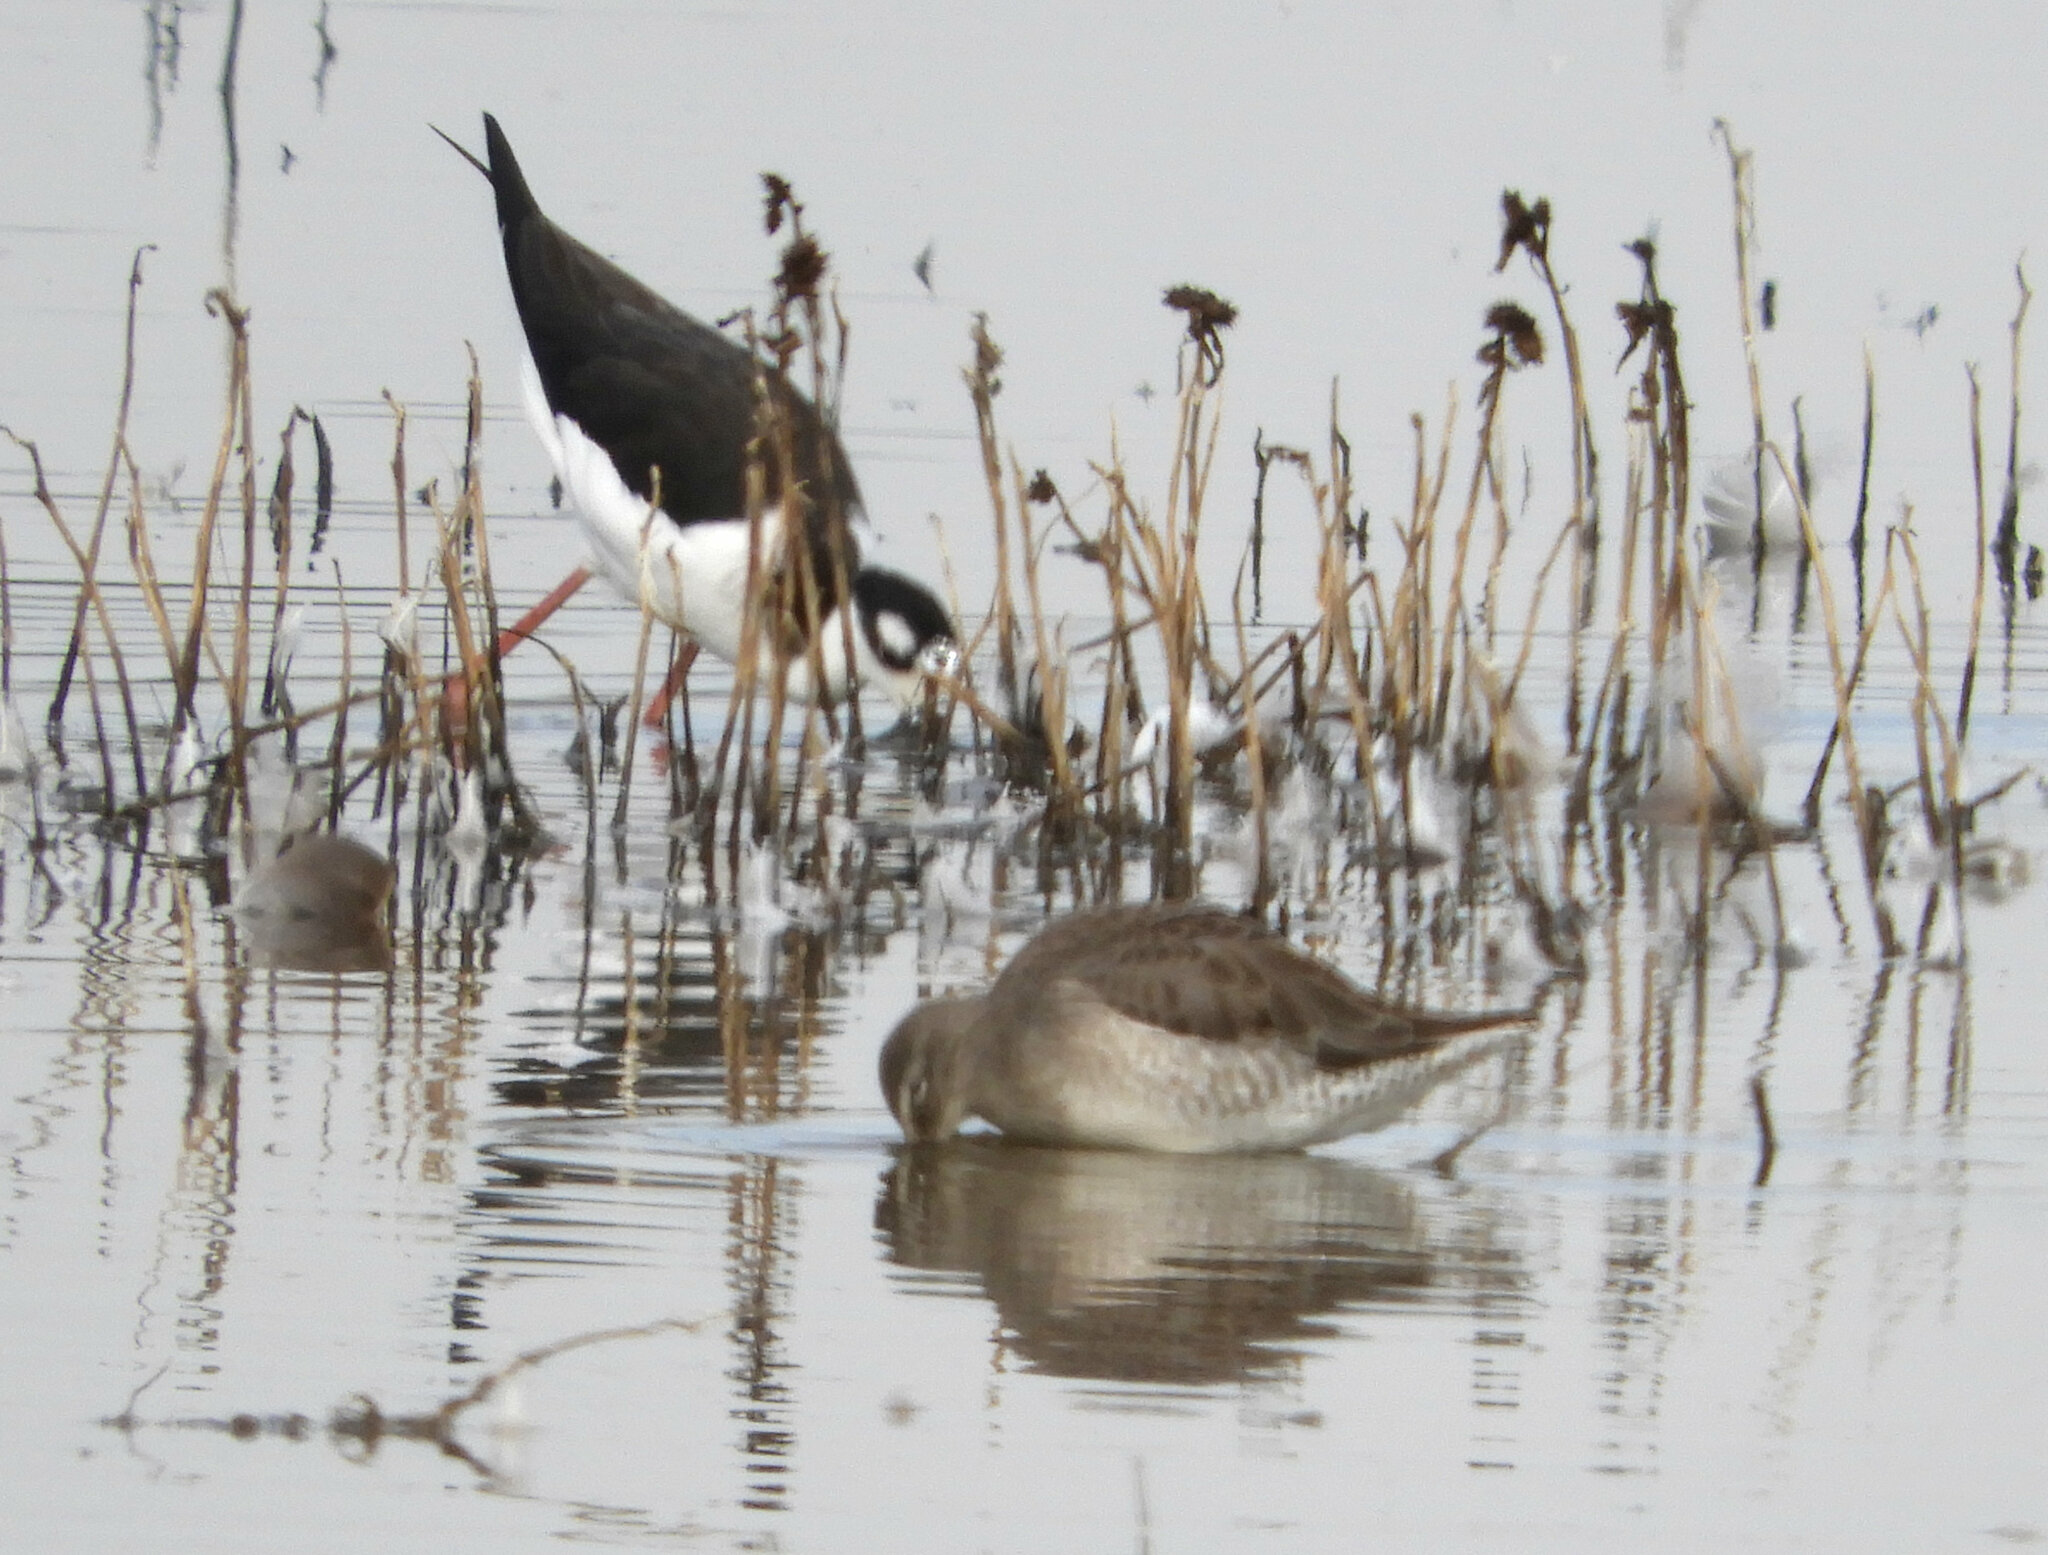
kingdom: Animalia
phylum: Chordata
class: Aves
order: Charadriiformes
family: Recurvirostridae
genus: Himantopus
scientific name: Himantopus mexicanus
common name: Black-necked stilt
